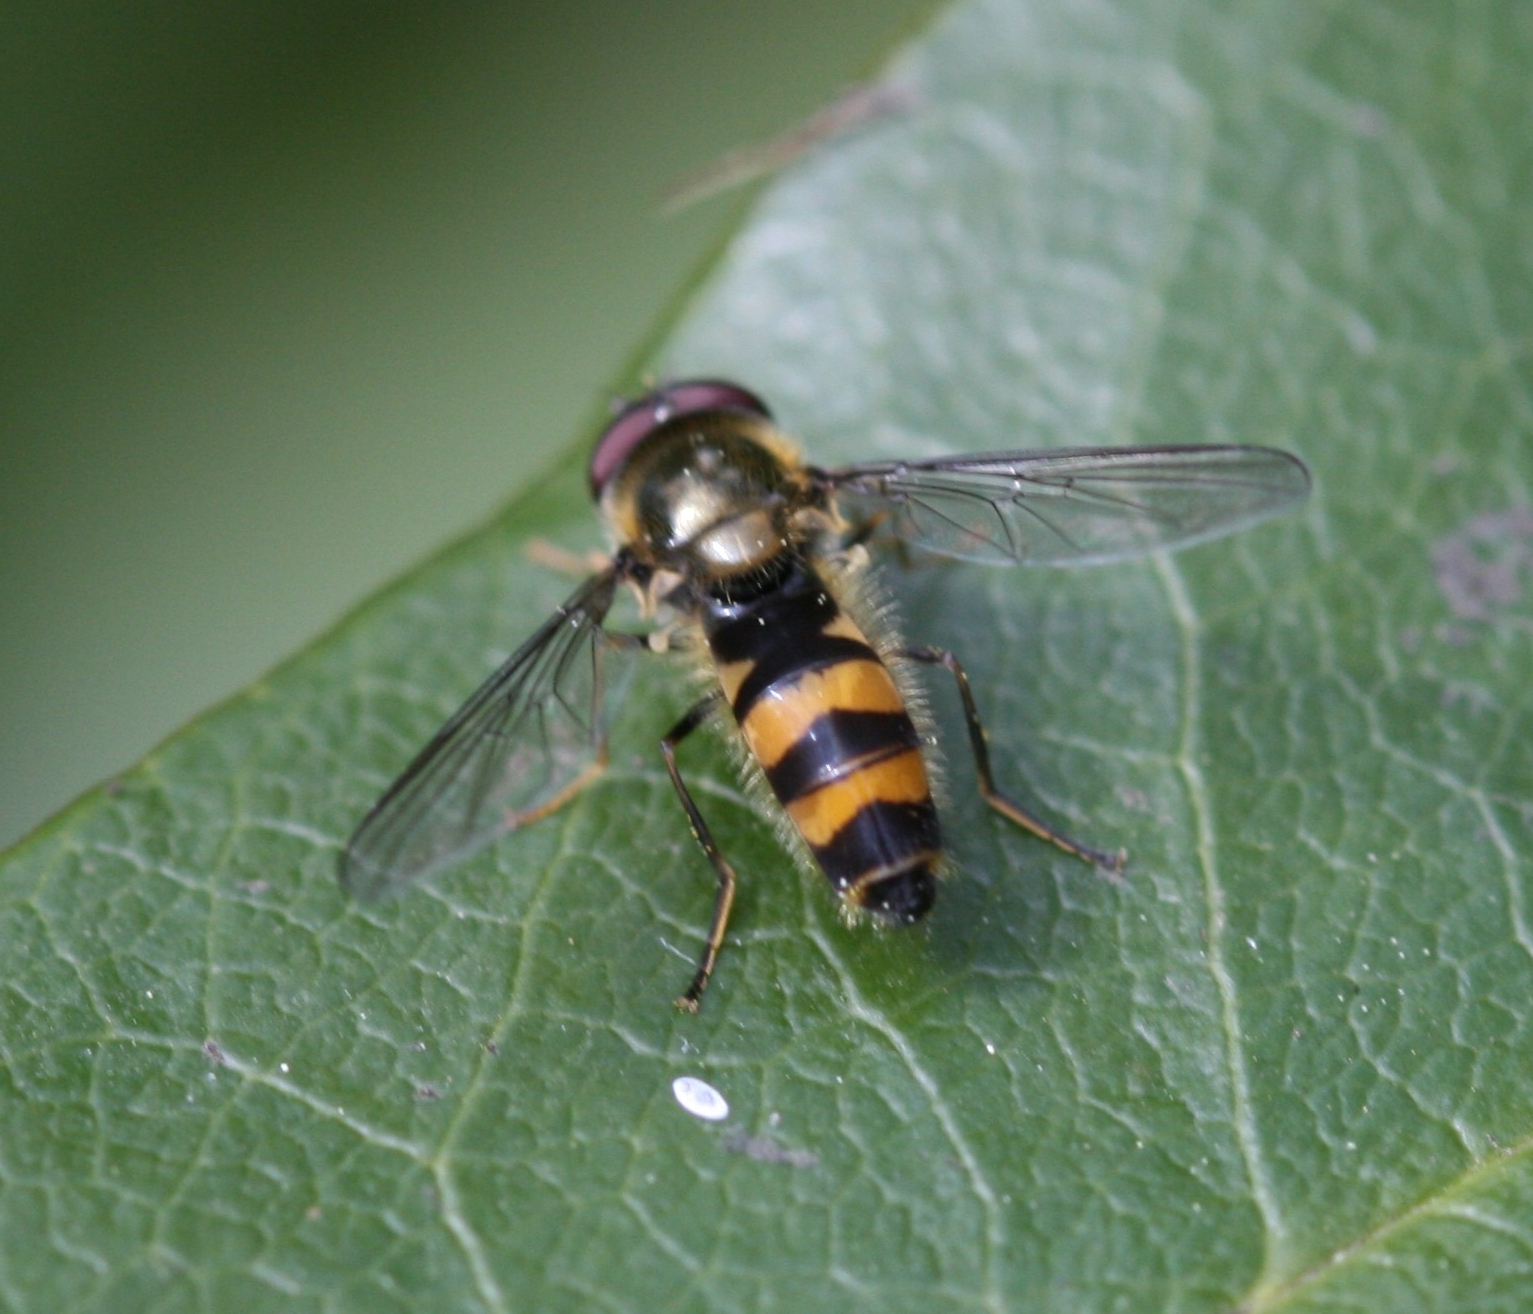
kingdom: Animalia
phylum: Arthropoda
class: Insecta
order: Diptera
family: Syrphidae
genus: Fagisyrphus
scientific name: Fagisyrphus cincta
